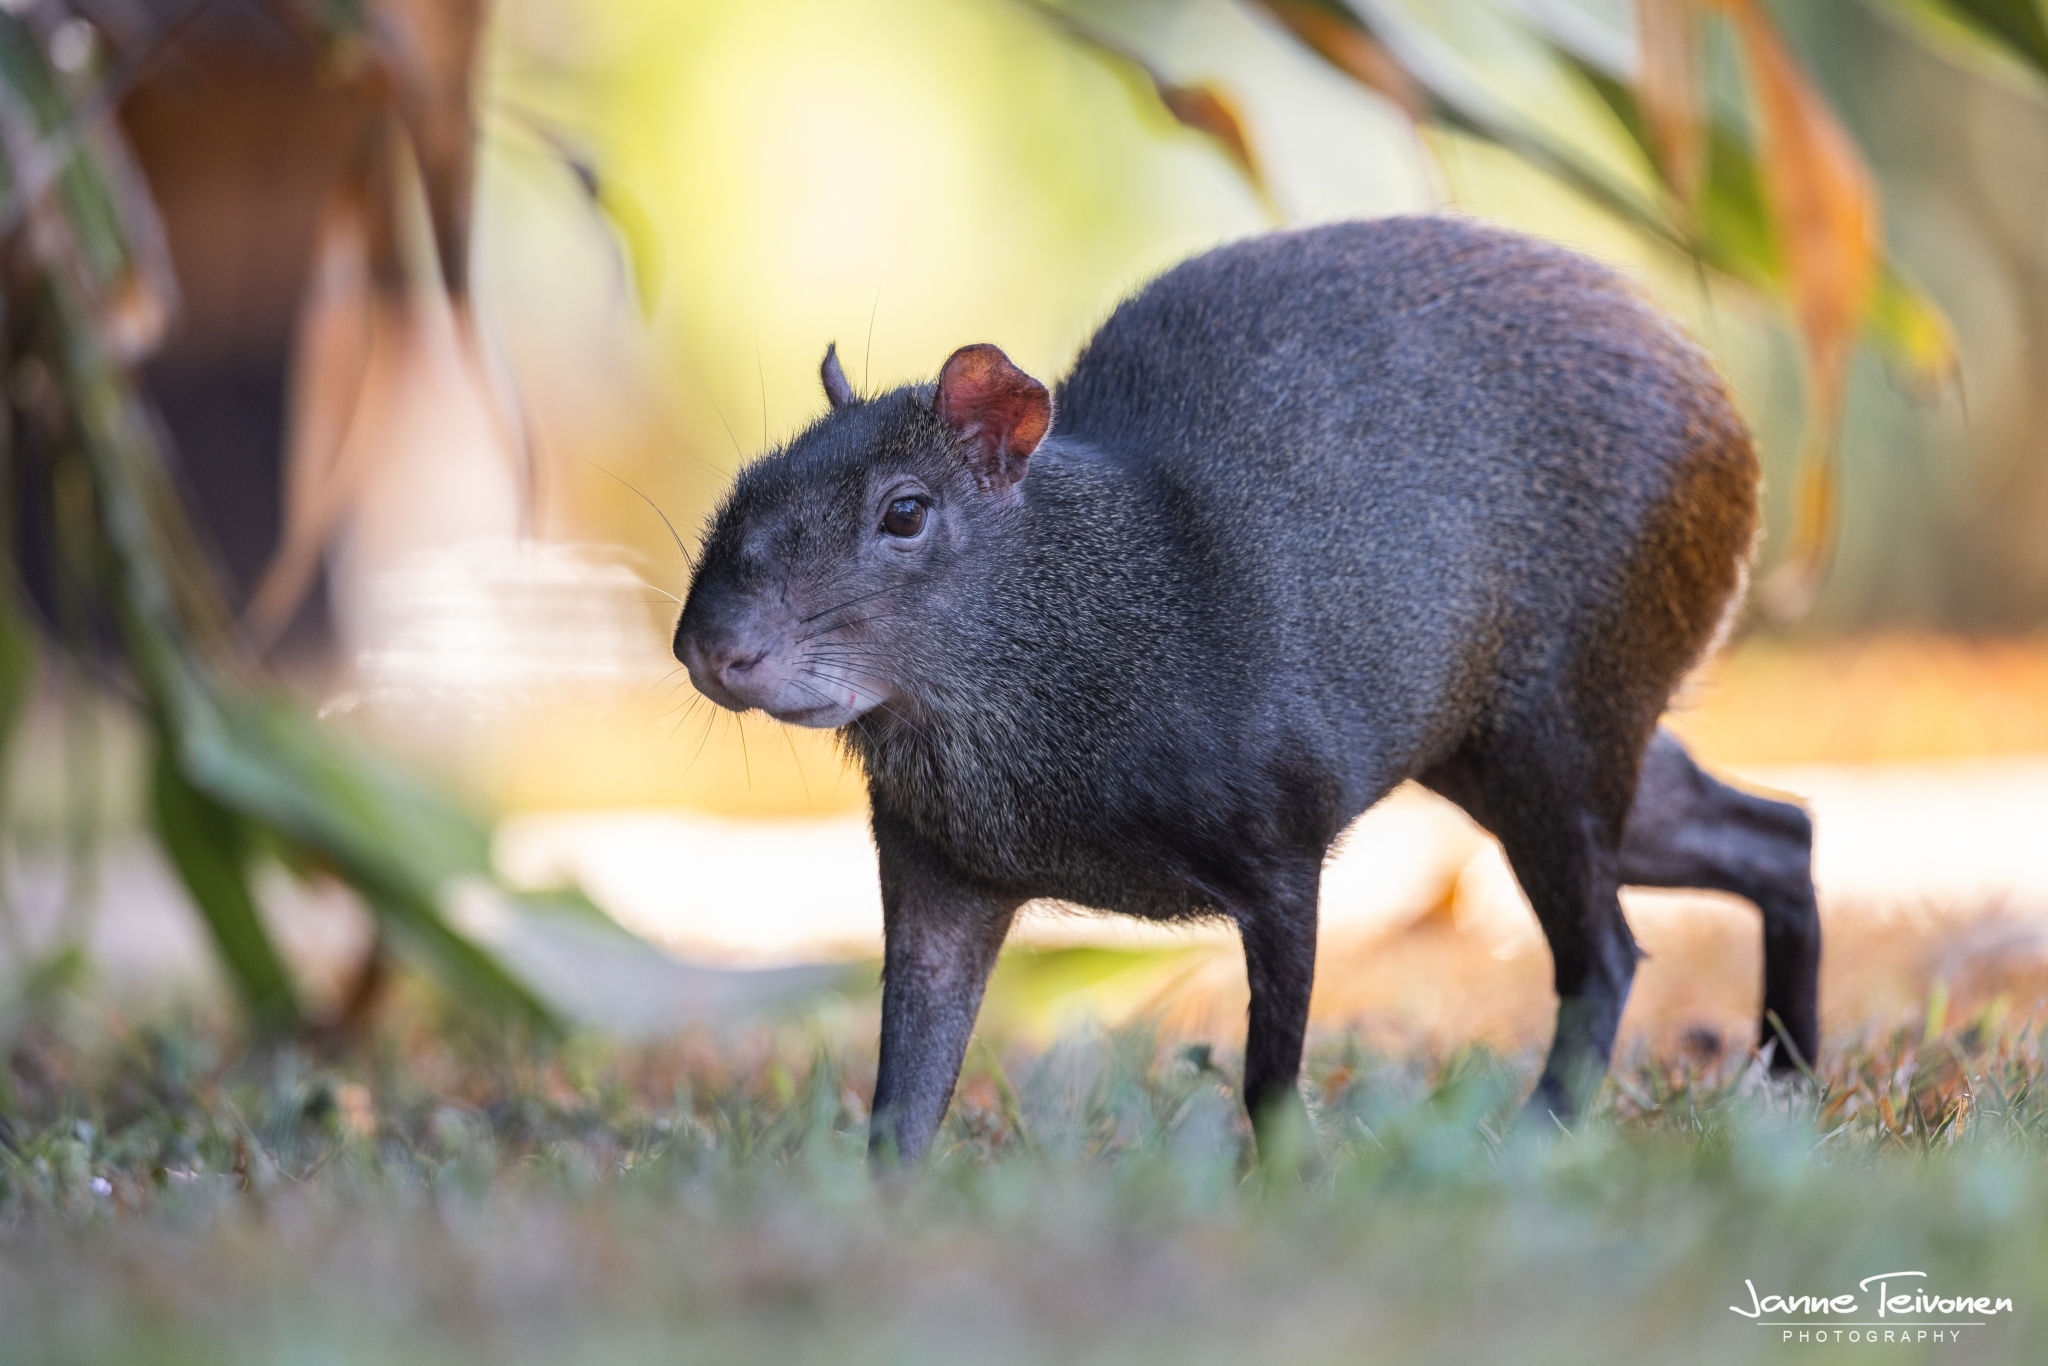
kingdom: Animalia
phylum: Chordata
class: Mammalia
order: Rodentia
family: Dasyproctidae
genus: Dasyprocta
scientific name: Dasyprocta leporina
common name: Red-rumped agouti
